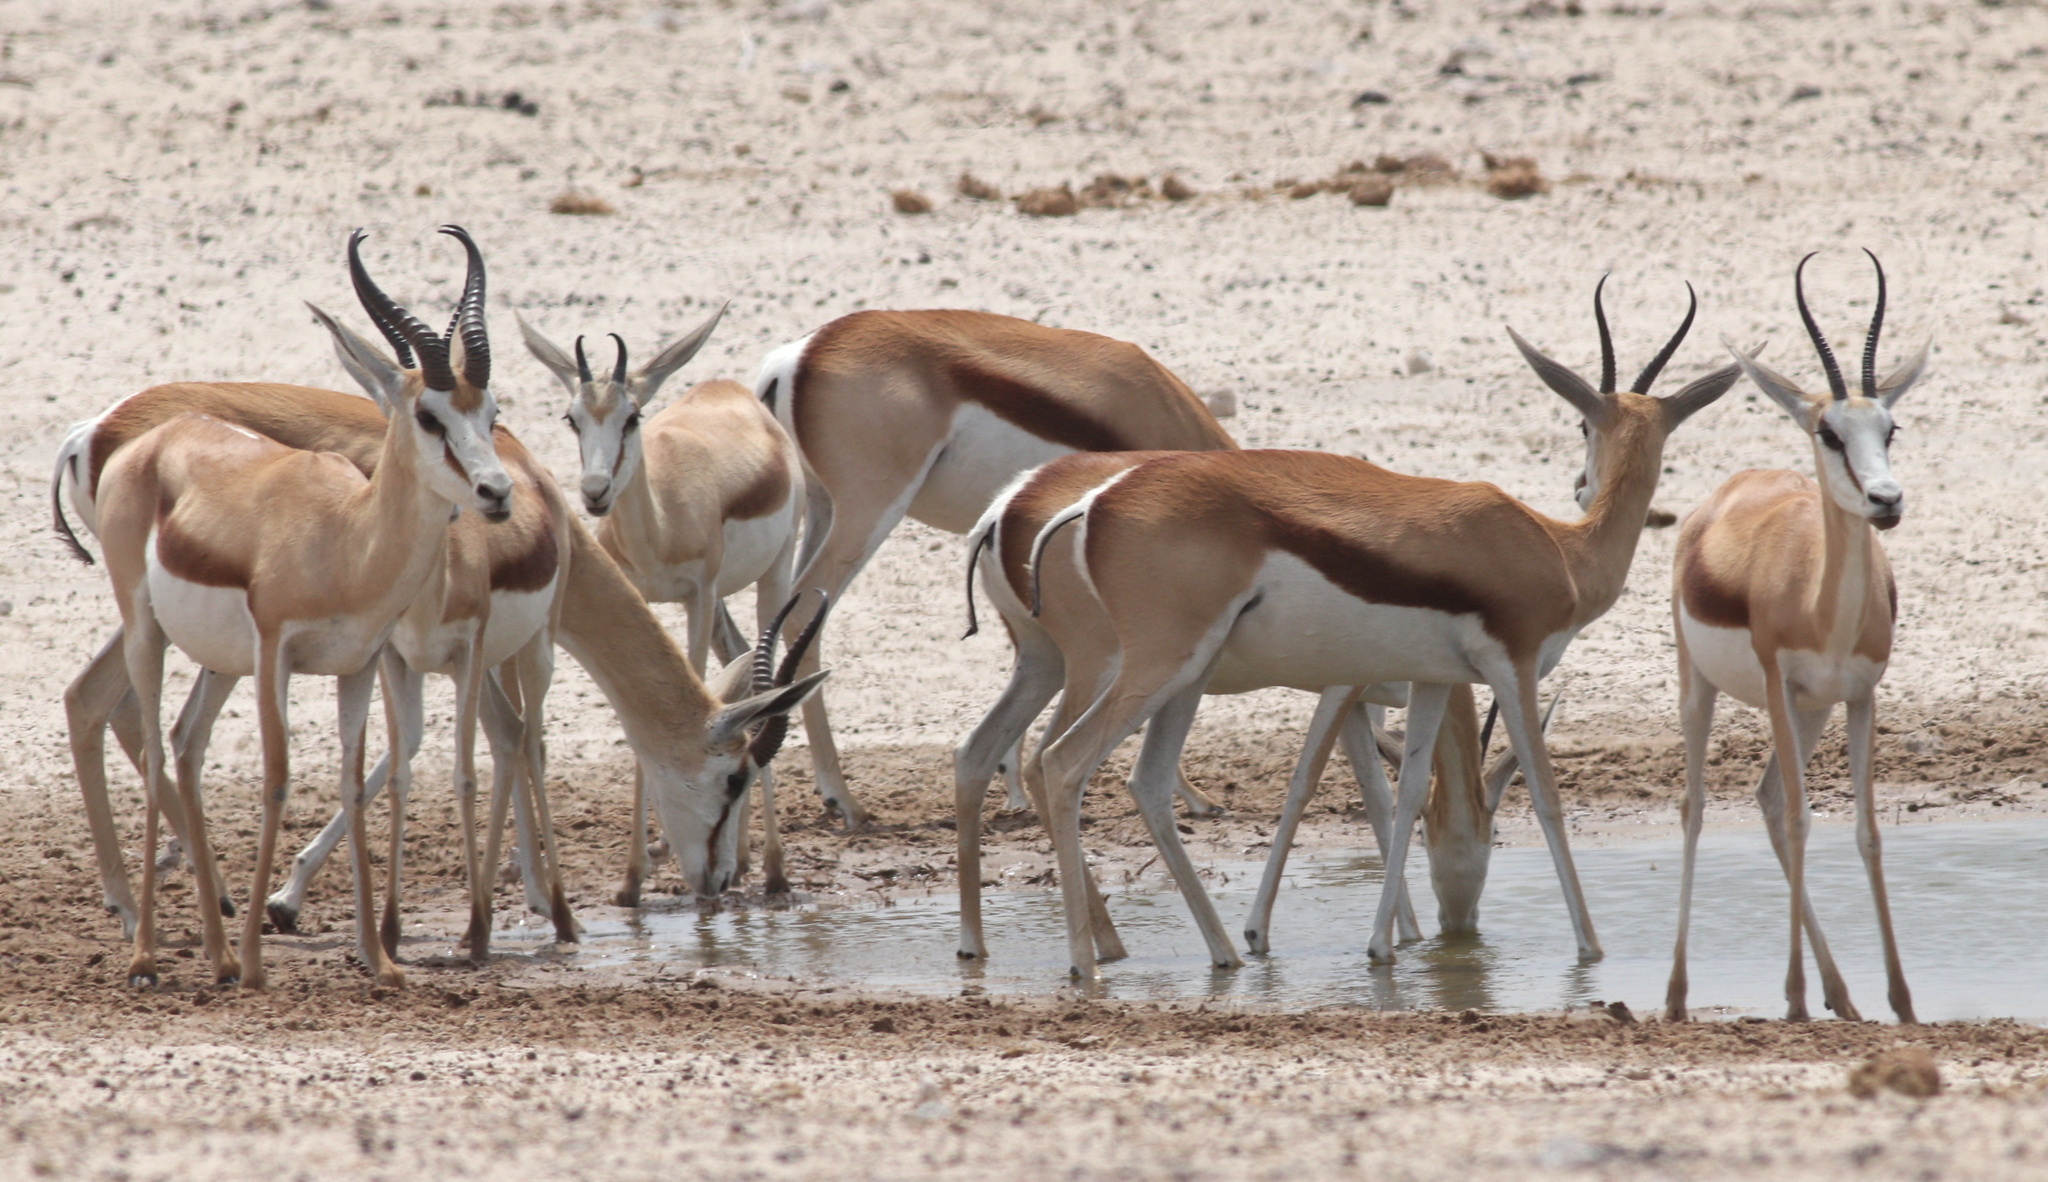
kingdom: Animalia
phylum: Chordata
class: Mammalia
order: Artiodactyla
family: Bovidae
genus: Antidorcas
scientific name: Antidorcas marsupialis
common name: Springbok
